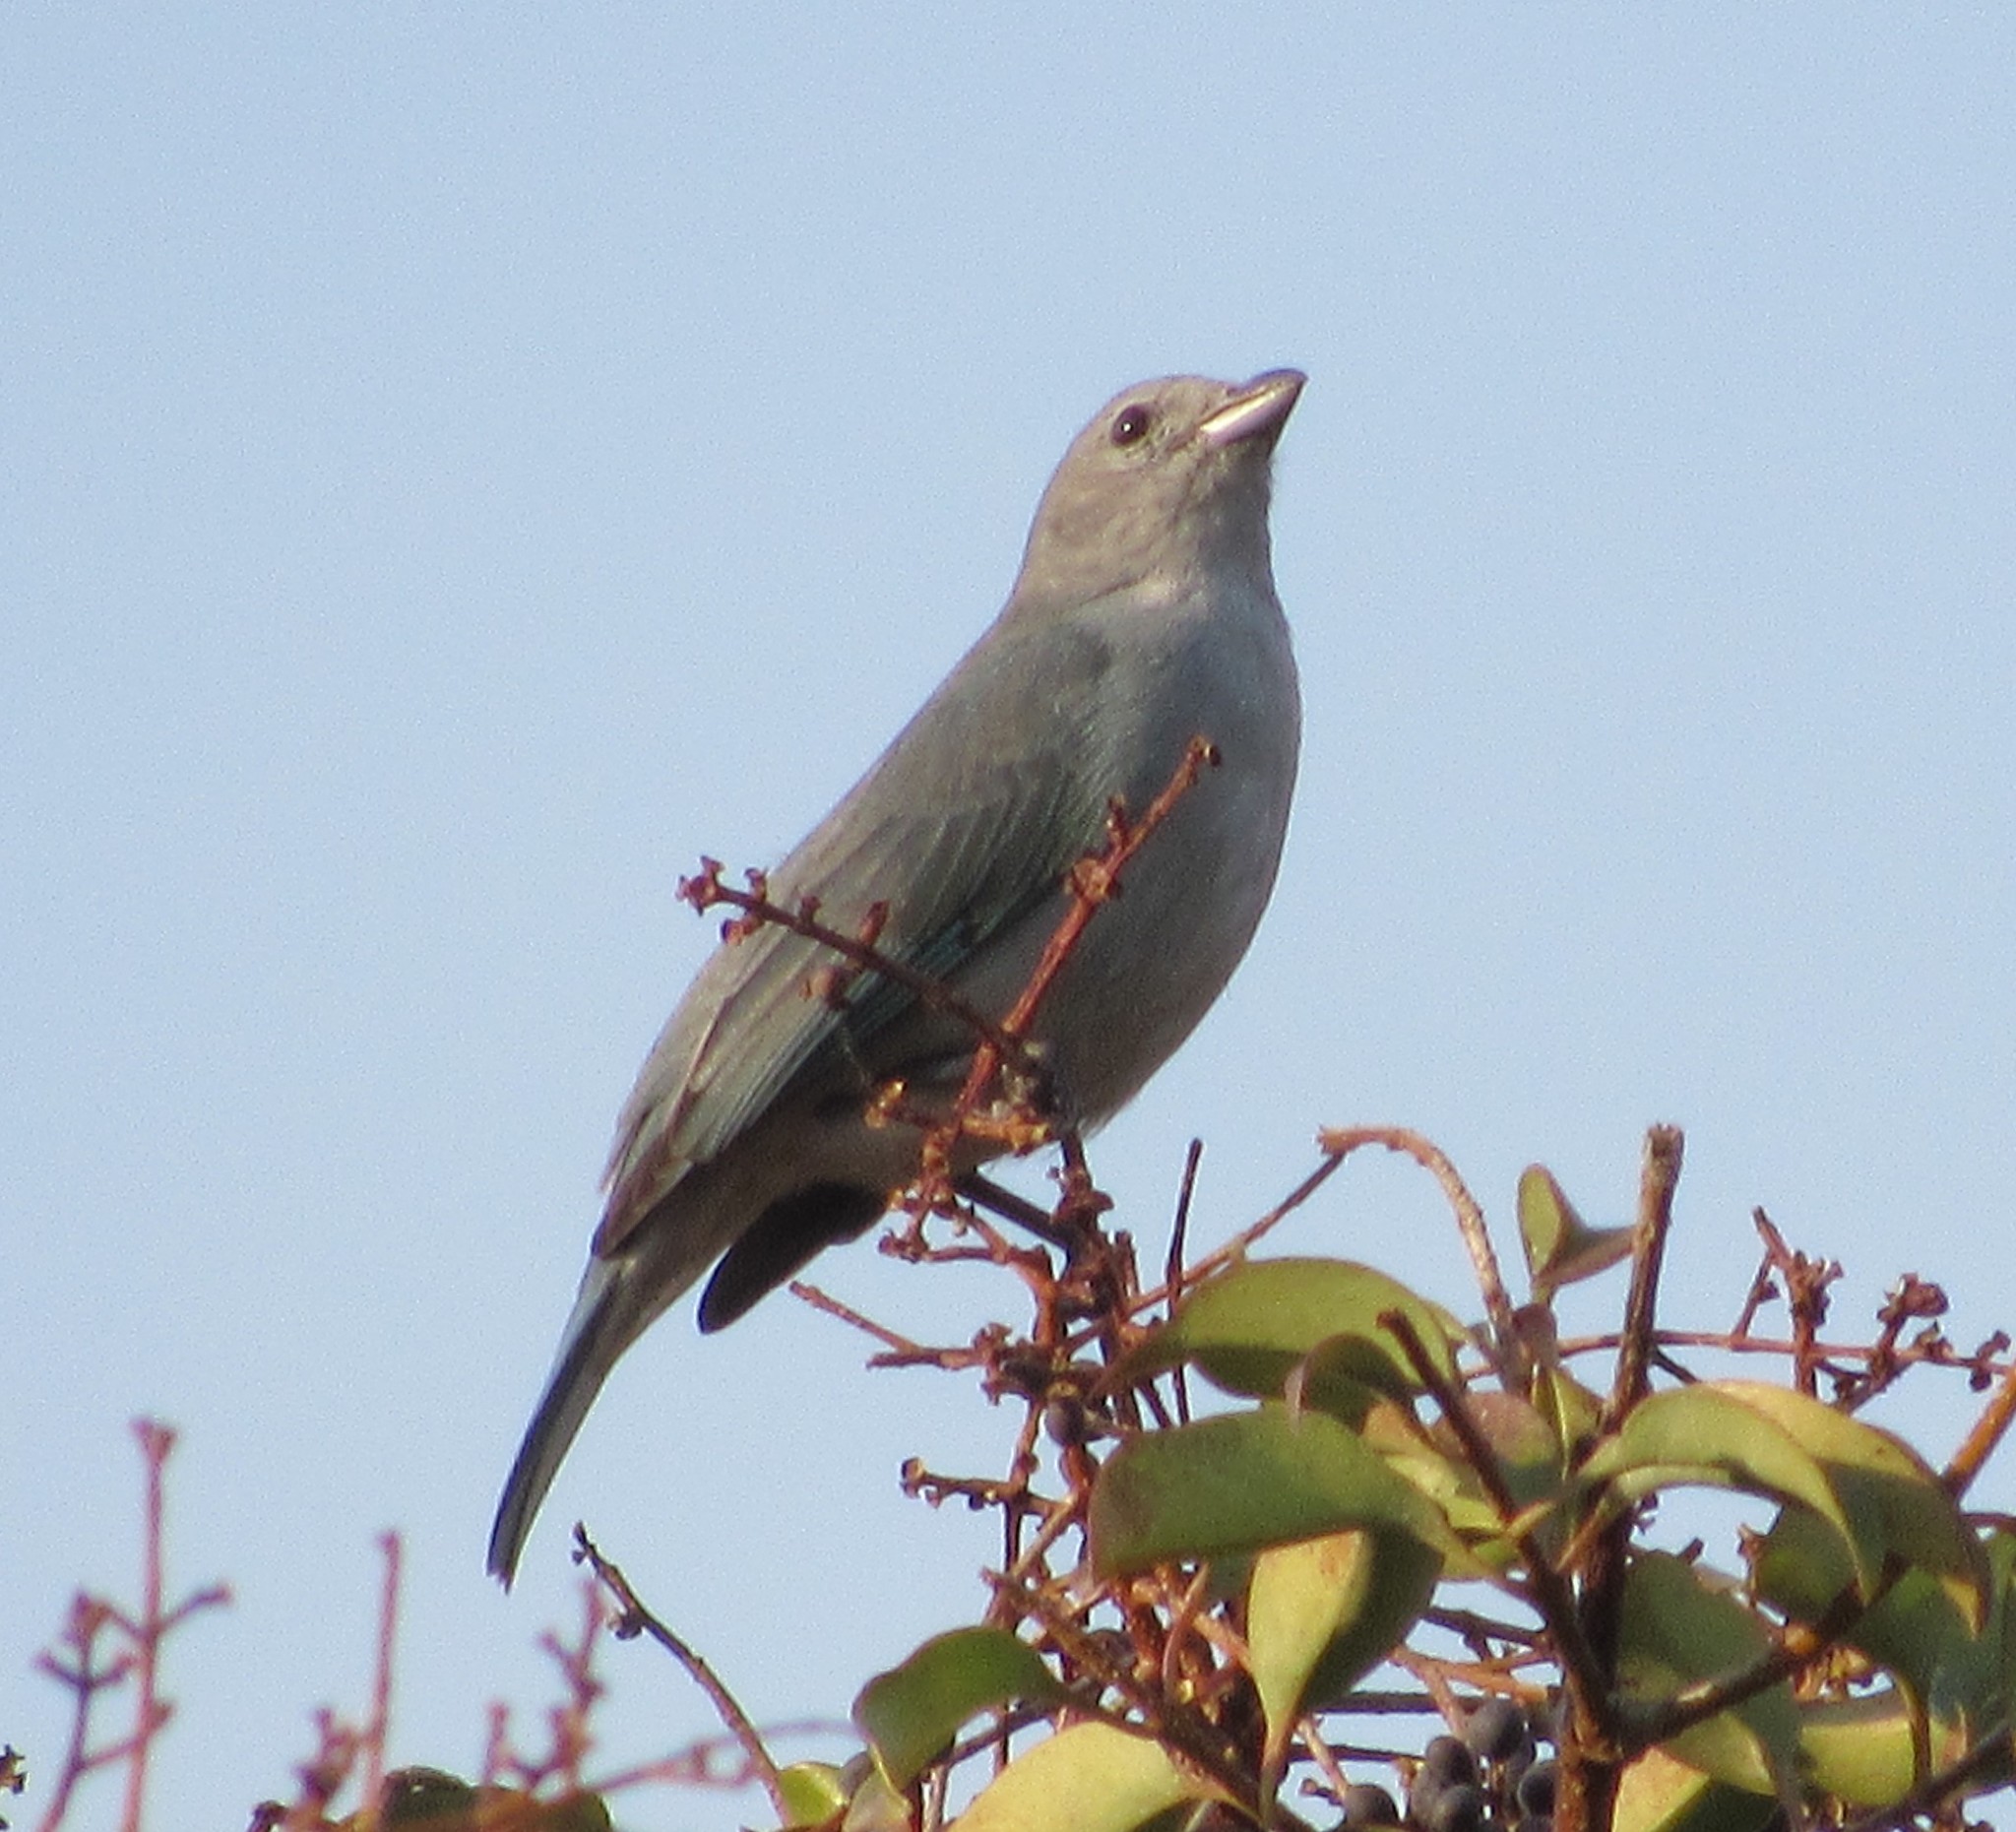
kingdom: Animalia
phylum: Chordata
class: Aves
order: Passeriformes
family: Thraupidae
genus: Thraupis
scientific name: Thraupis sayaca
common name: Sayaca tanager
